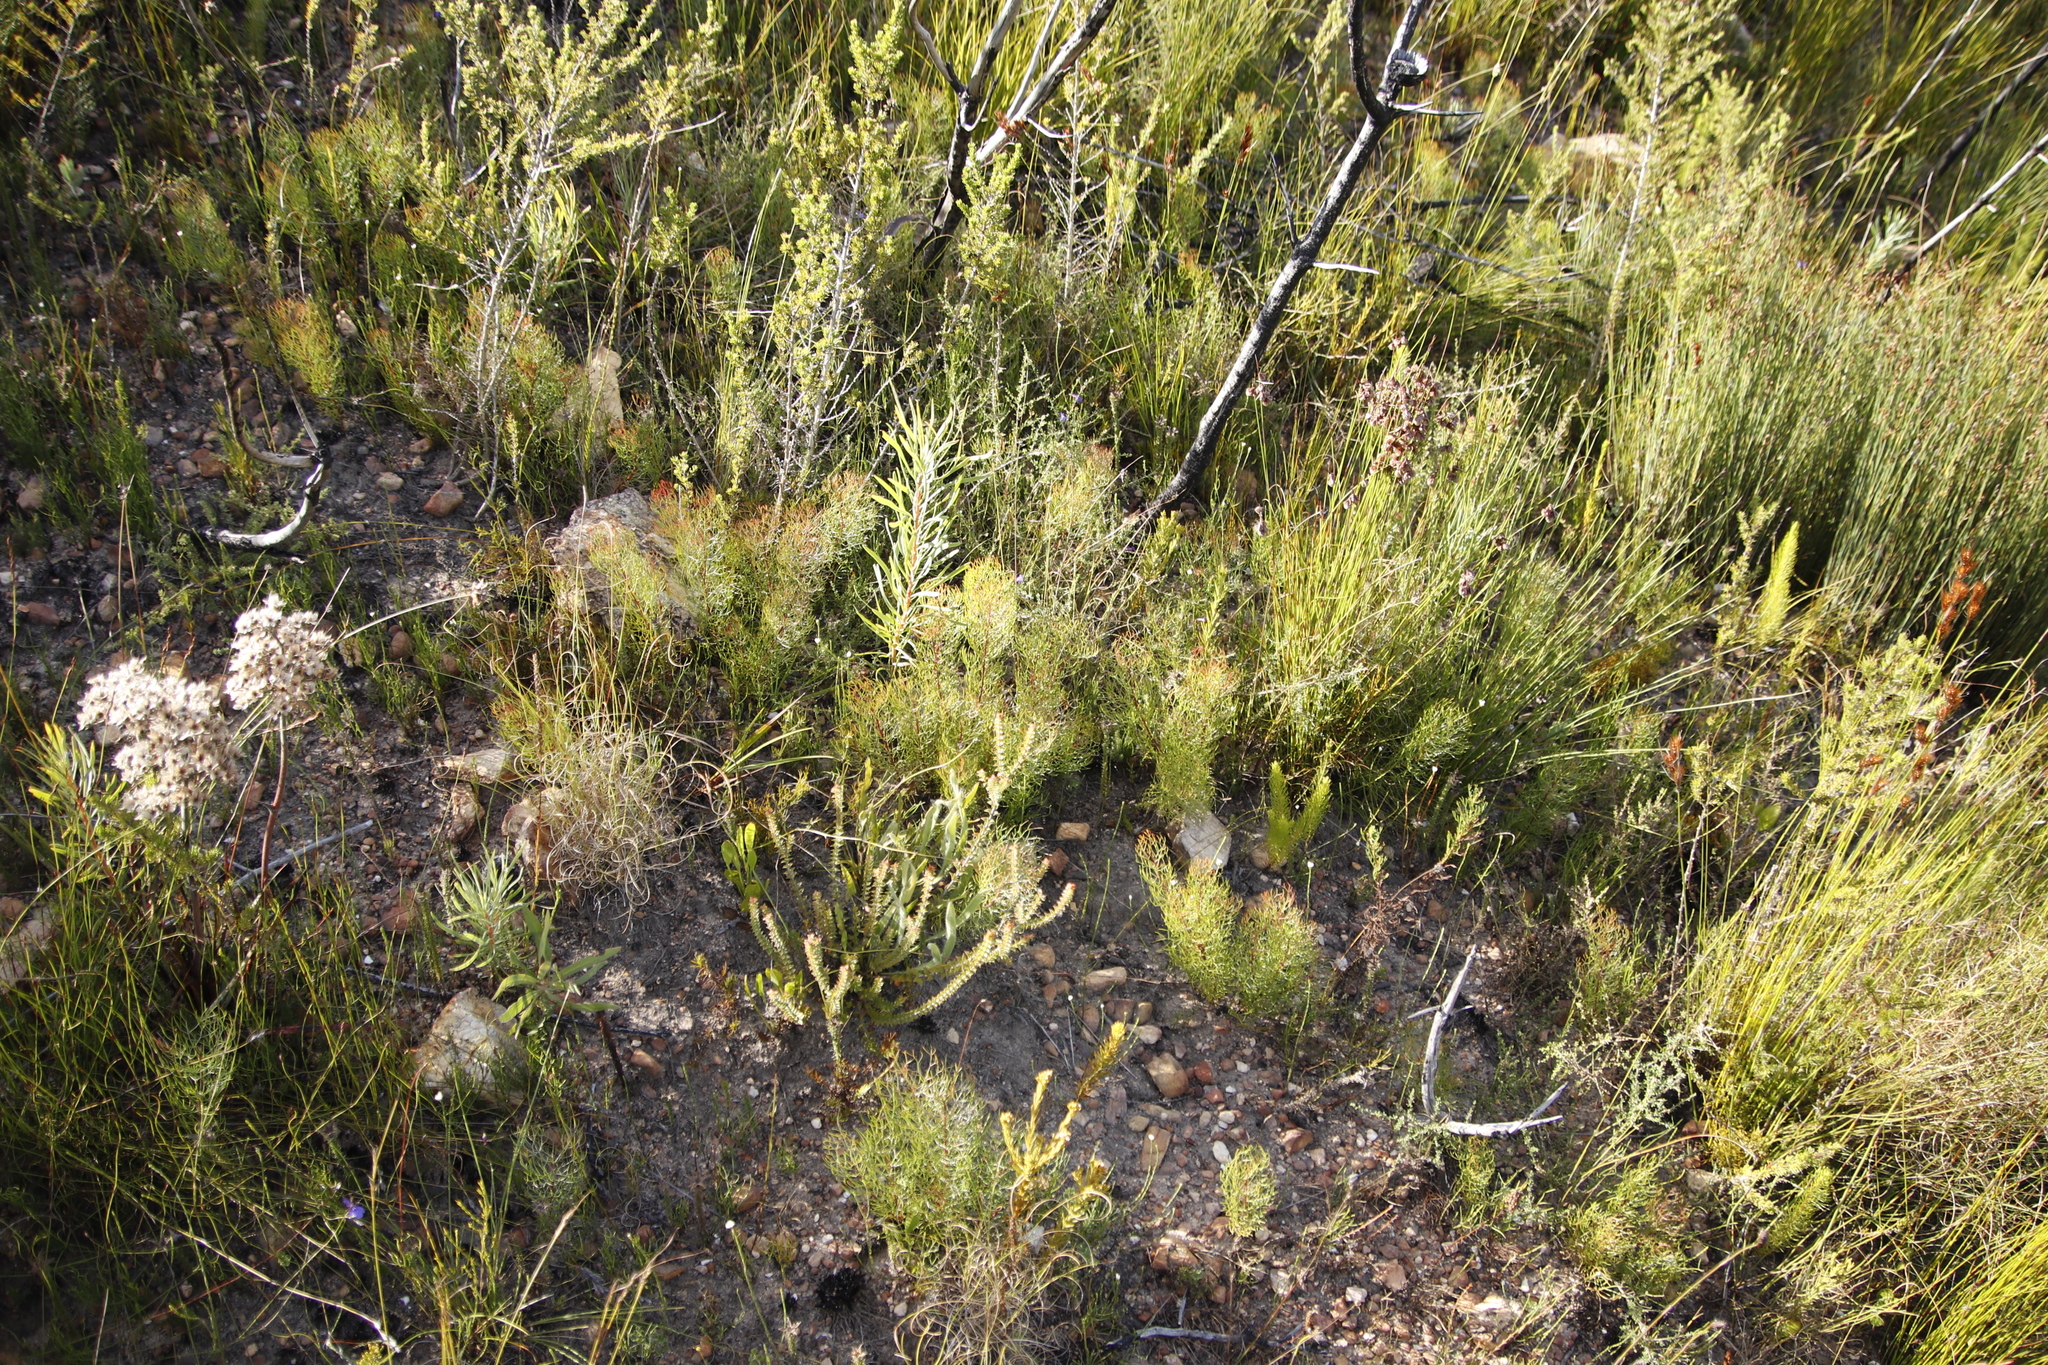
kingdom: Plantae
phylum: Tracheophyta
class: Magnoliopsida
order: Proteales
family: Proteaceae
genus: Serruria
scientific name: Serruria fasciflora
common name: Common pin spiderhead
